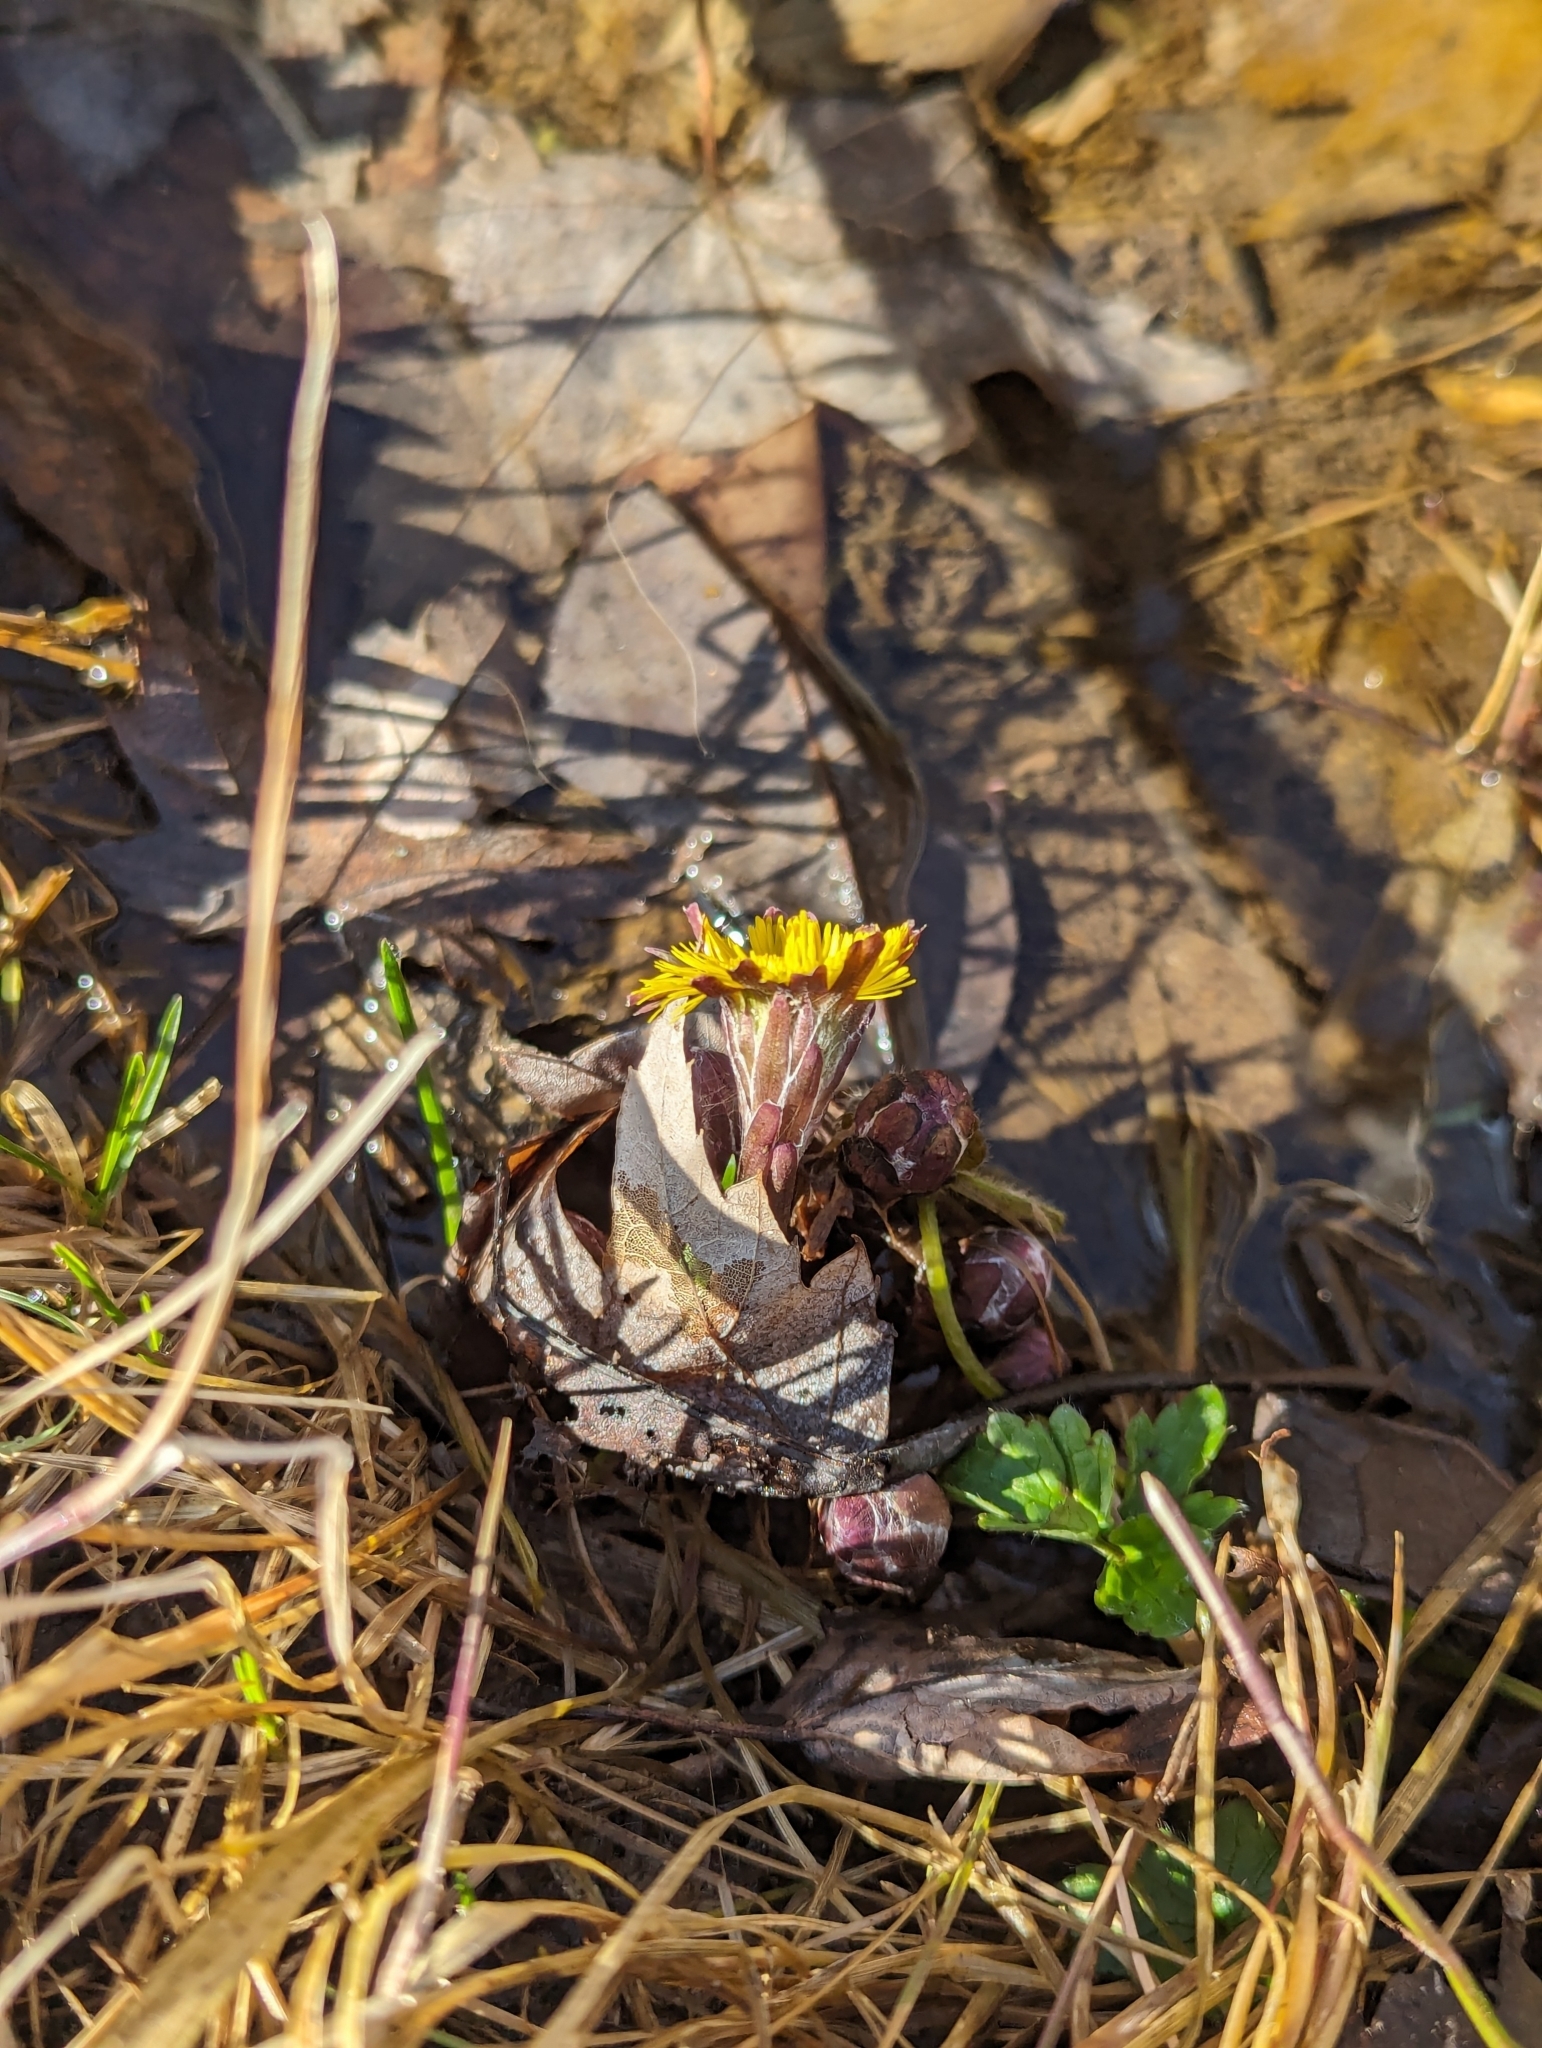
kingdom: Plantae
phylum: Tracheophyta
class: Magnoliopsida
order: Asterales
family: Asteraceae
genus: Tussilago
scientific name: Tussilago farfara
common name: Coltsfoot
